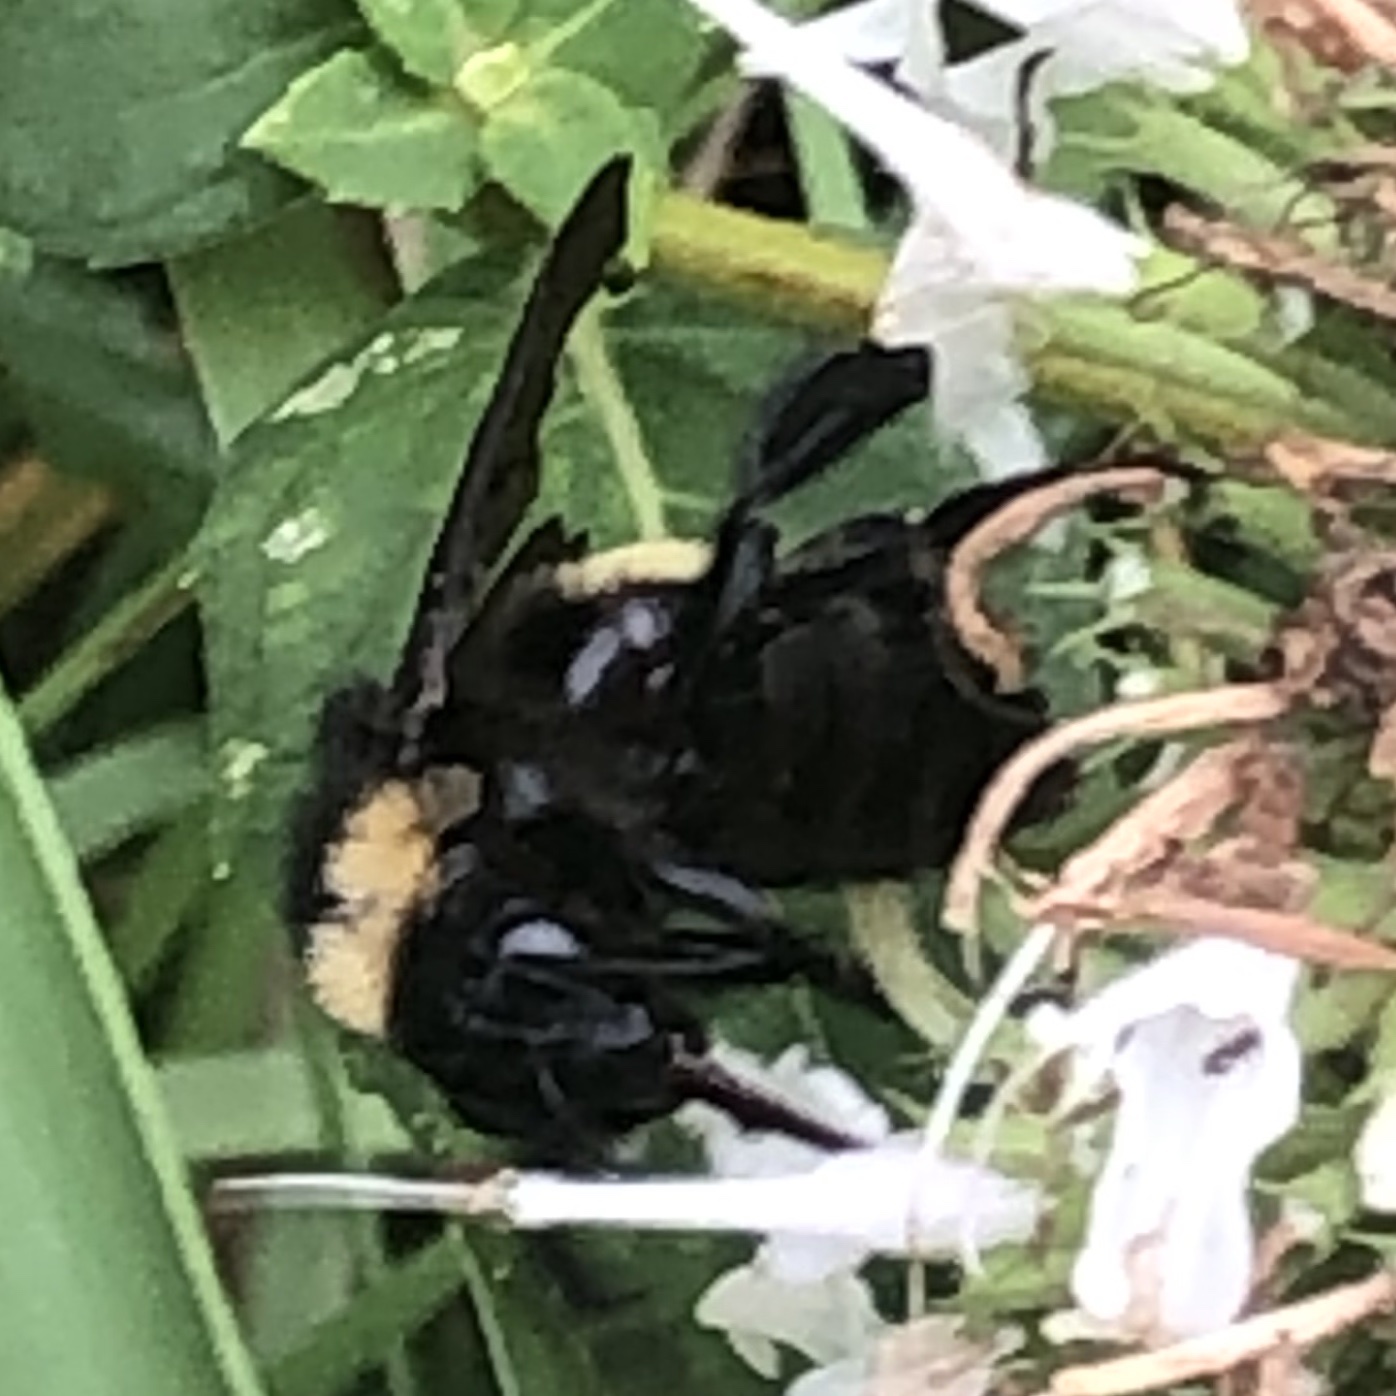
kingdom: Animalia
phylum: Arthropoda
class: Insecta
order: Hymenoptera
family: Apidae
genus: Bombus
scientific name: Bombus pensylvanicus
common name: Bumble bee
